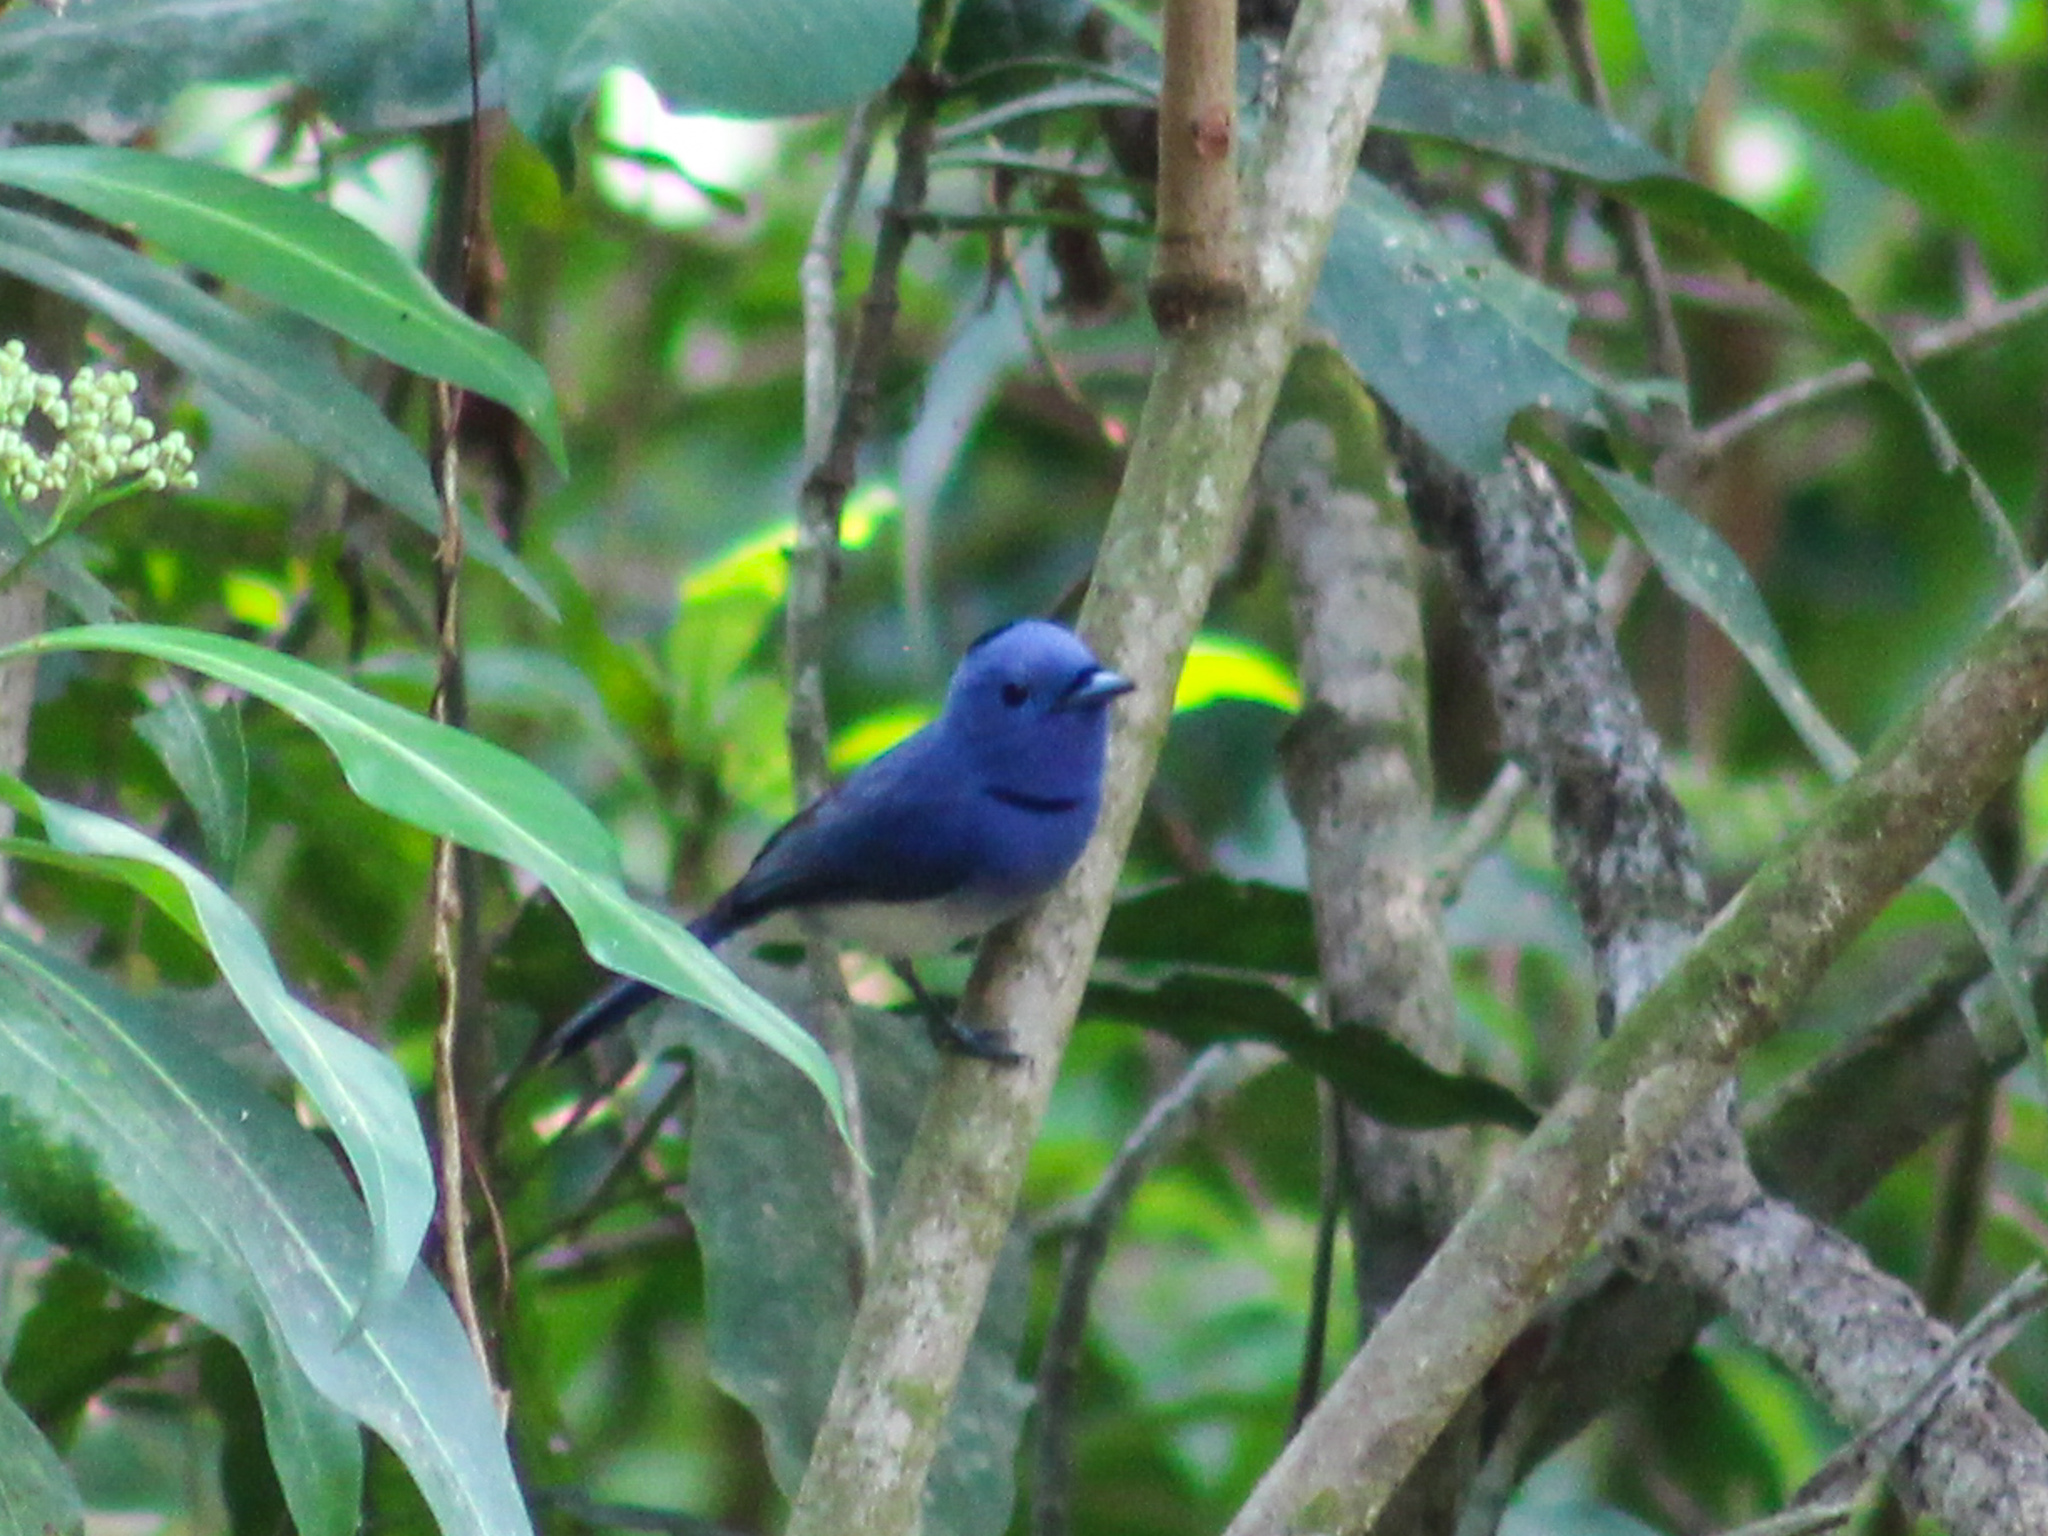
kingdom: Animalia
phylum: Chordata
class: Aves
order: Passeriformes
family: Monarchidae
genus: Hypothymis
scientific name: Hypothymis azurea
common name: Black-naped monarch
